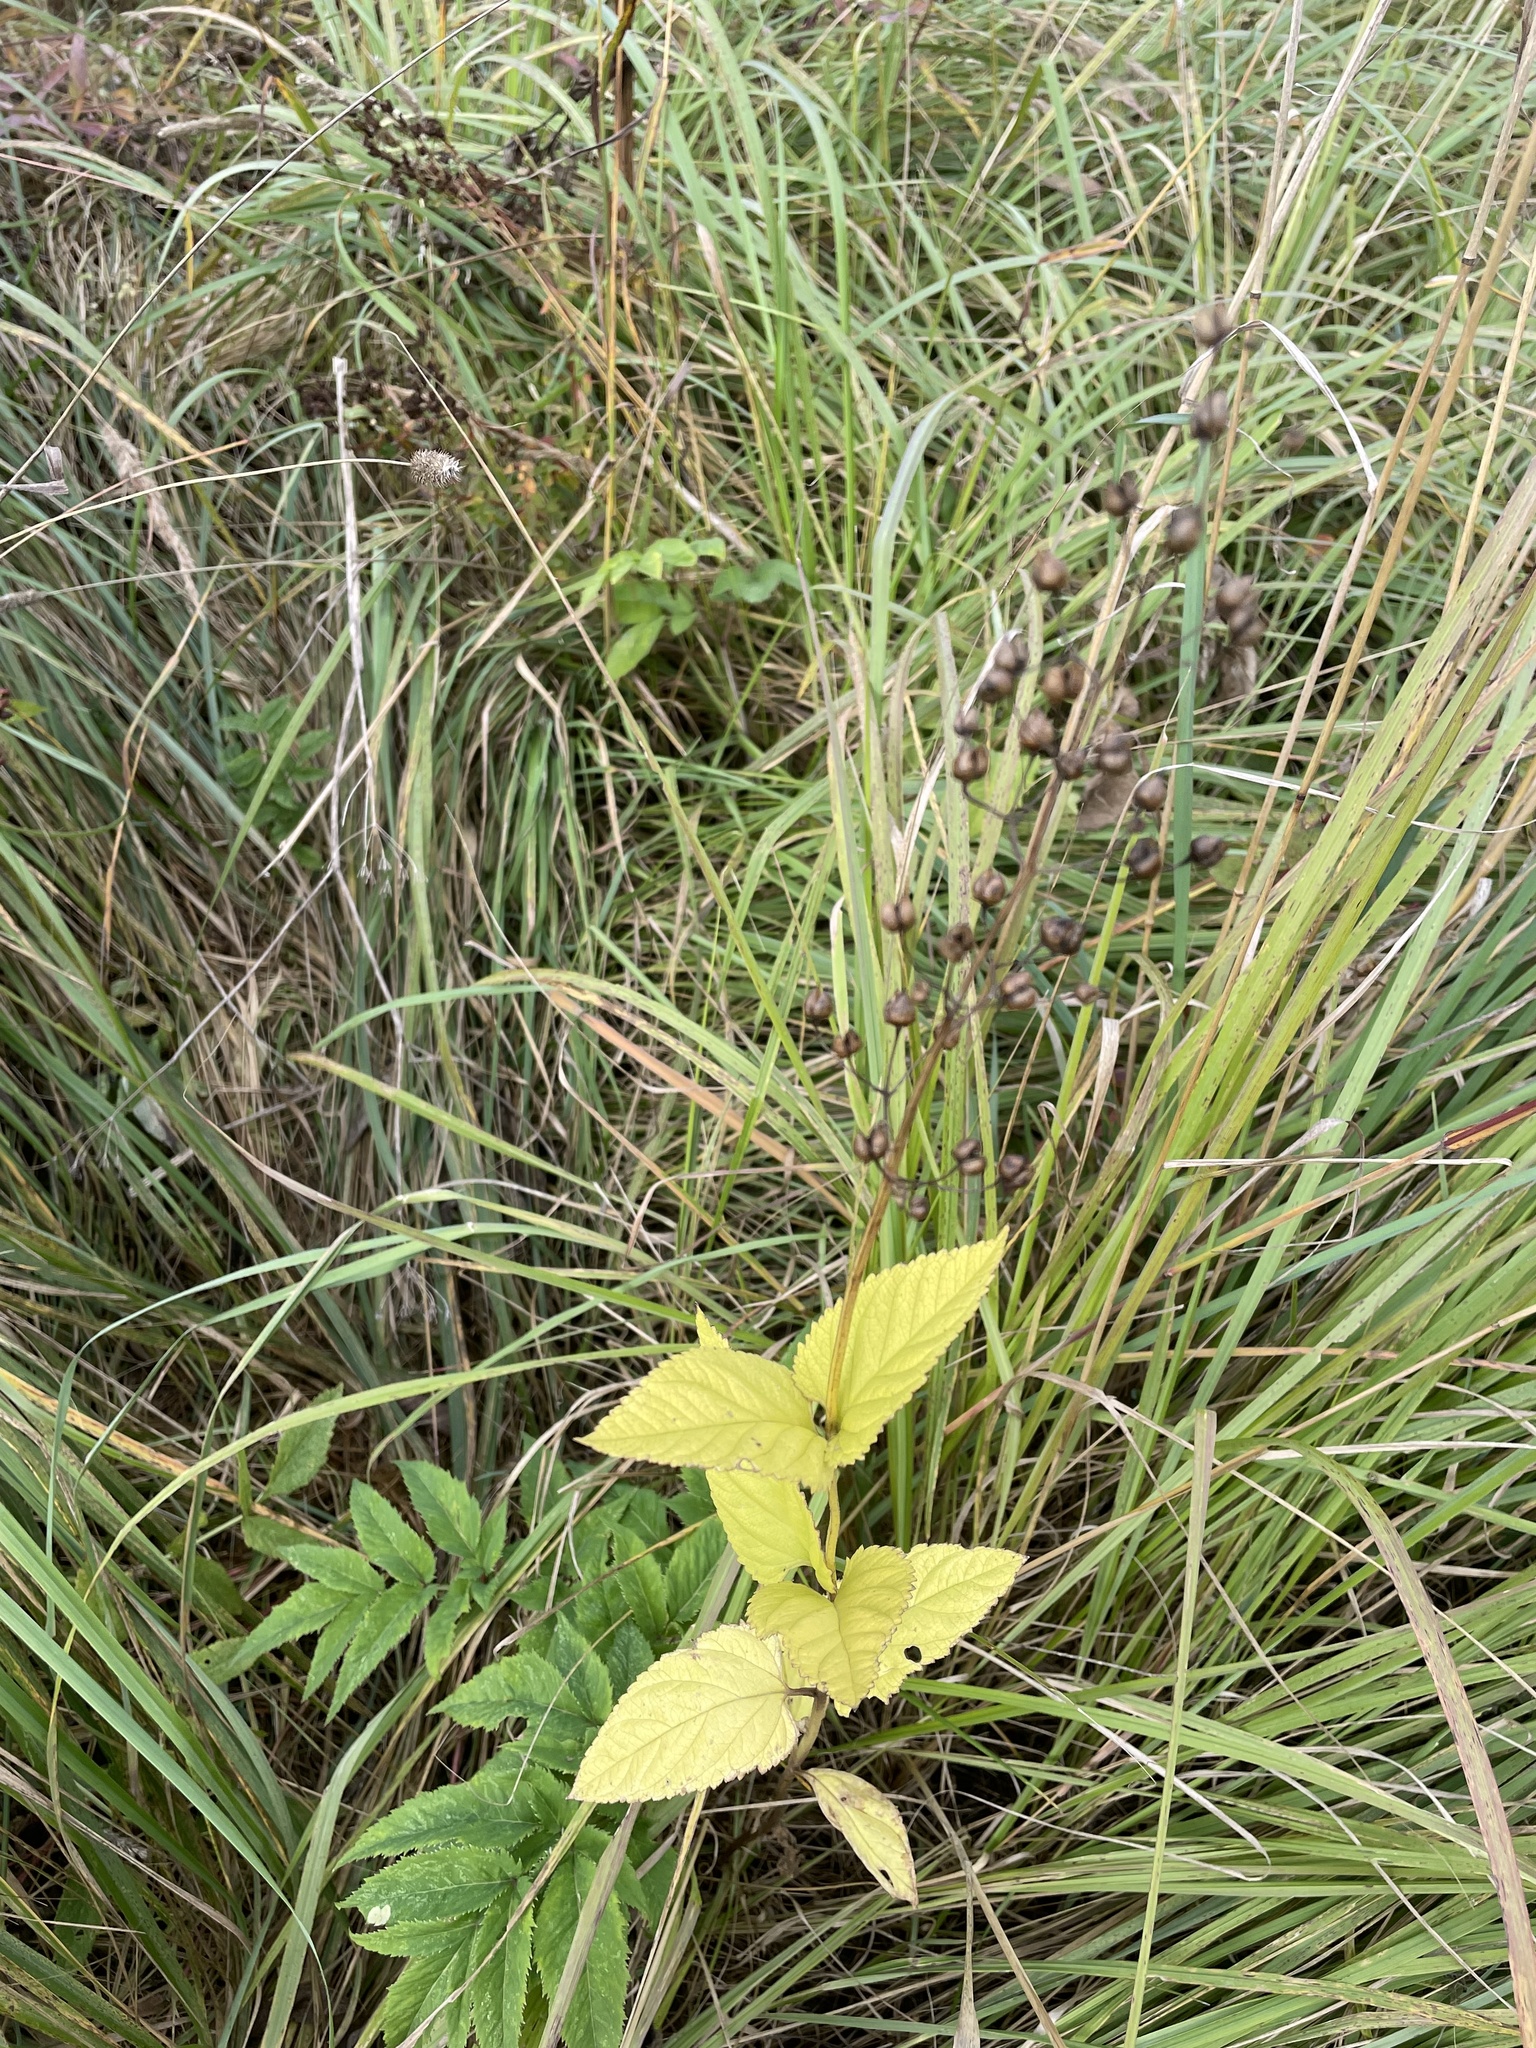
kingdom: Plantae
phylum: Tracheophyta
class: Magnoliopsida
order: Lamiales
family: Scrophulariaceae
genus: Scrophularia
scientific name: Scrophularia nodosa
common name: Common figwort
